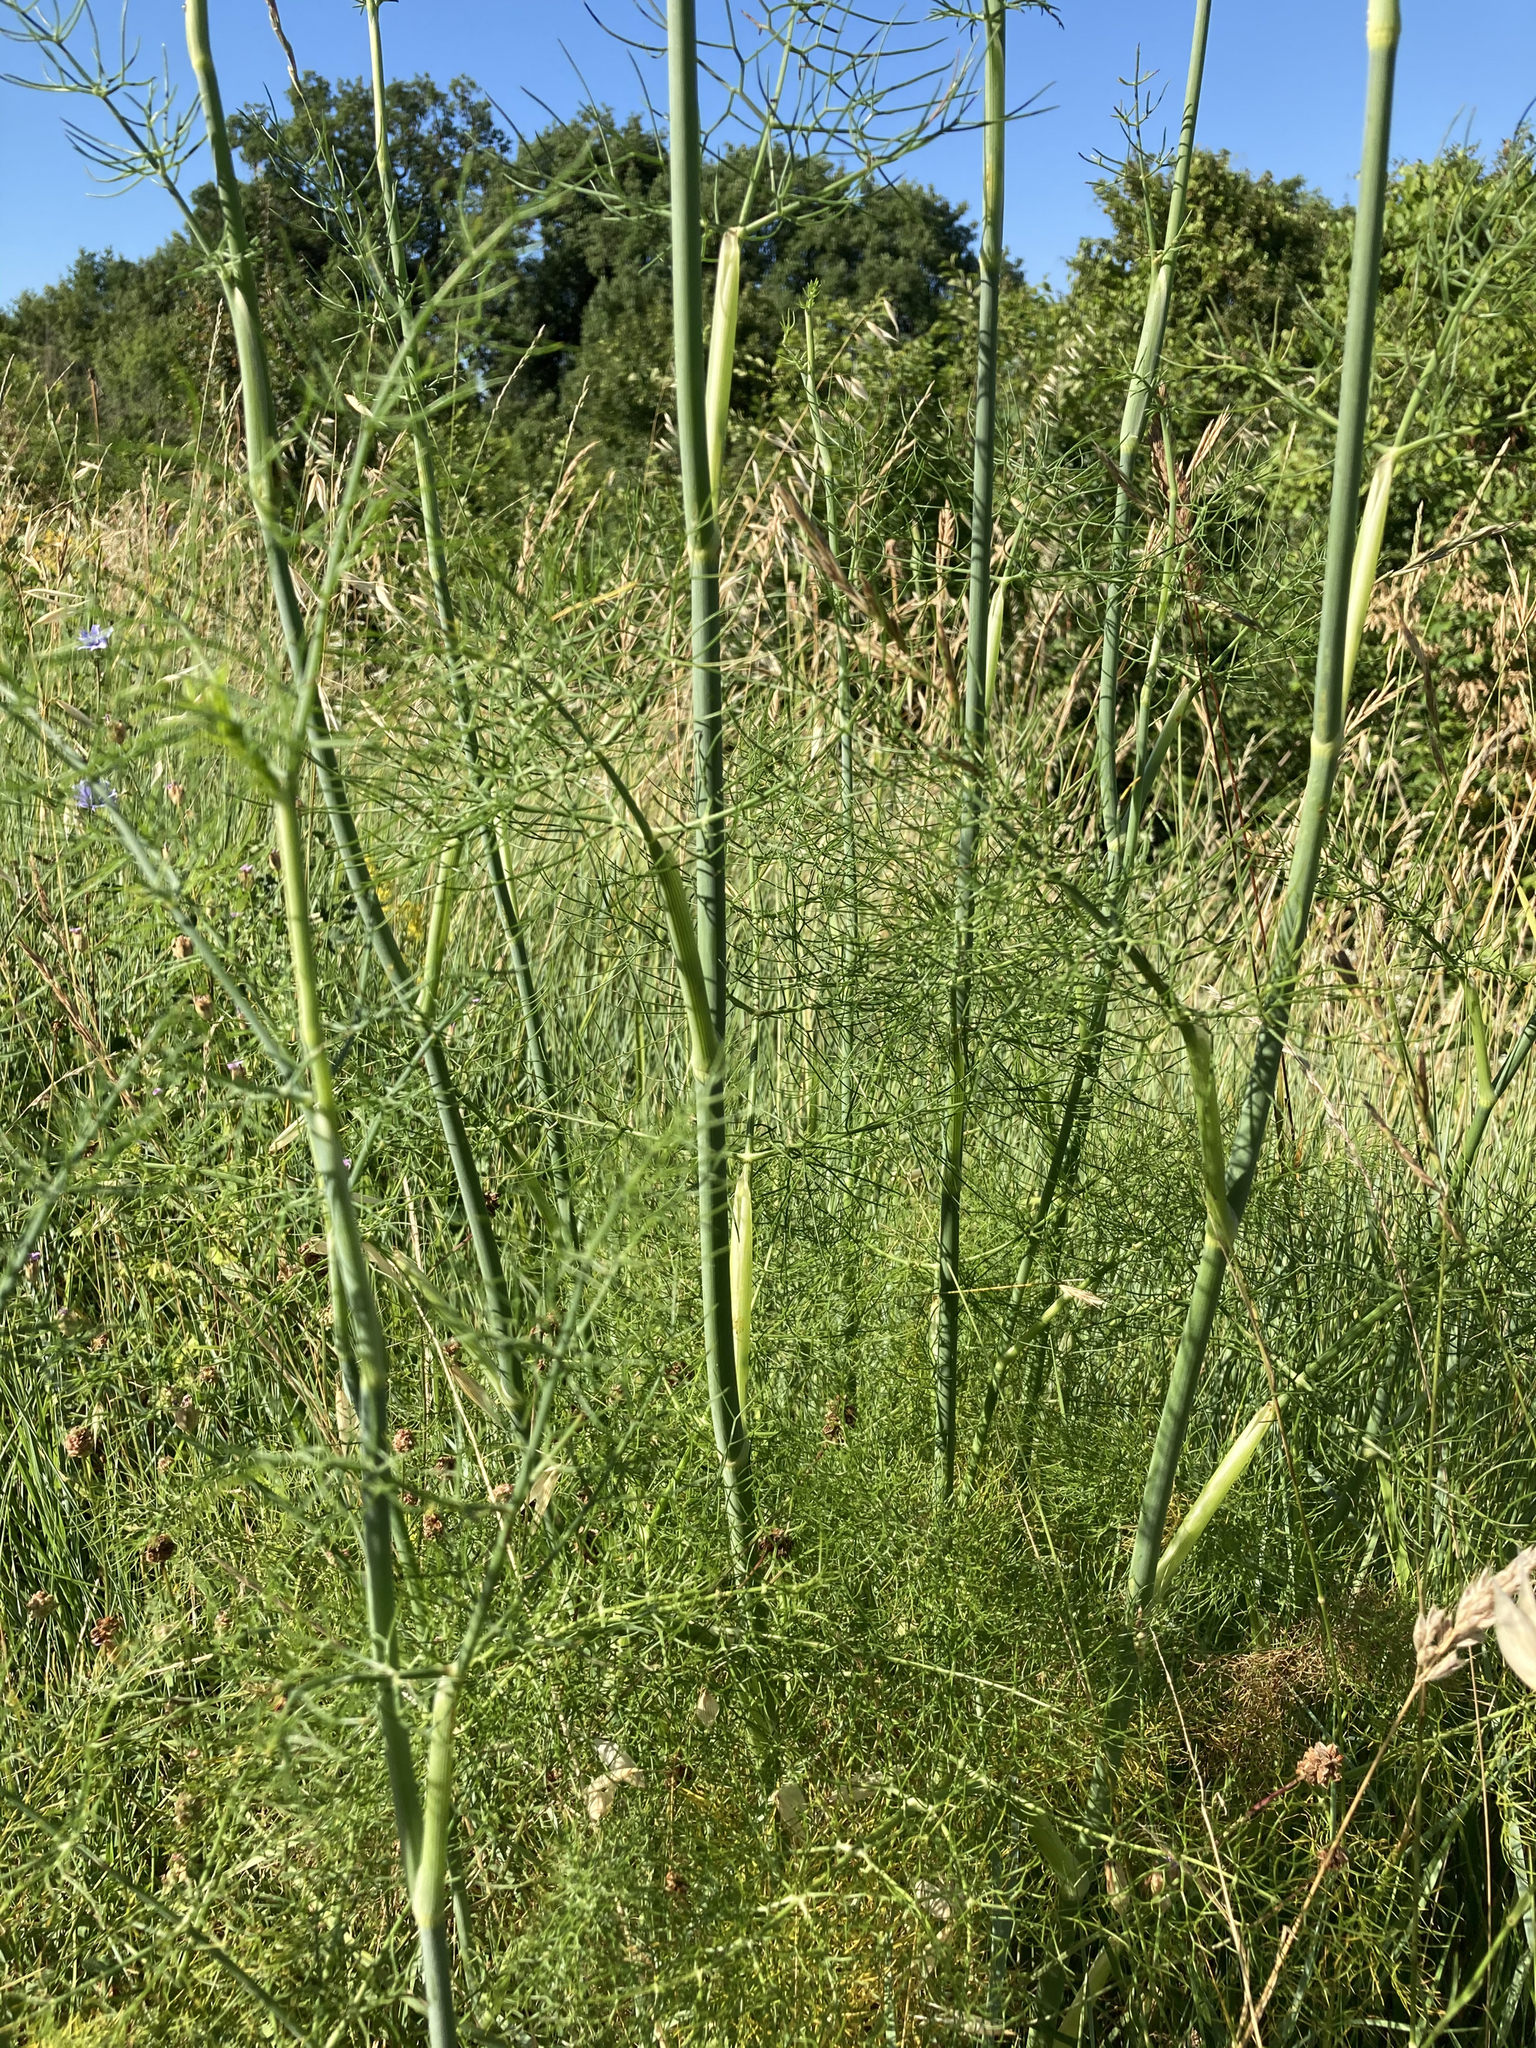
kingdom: Plantae
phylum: Tracheophyta
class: Magnoliopsida
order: Apiales
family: Apiaceae
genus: Foeniculum
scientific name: Foeniculum vulgare
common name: Fennel
